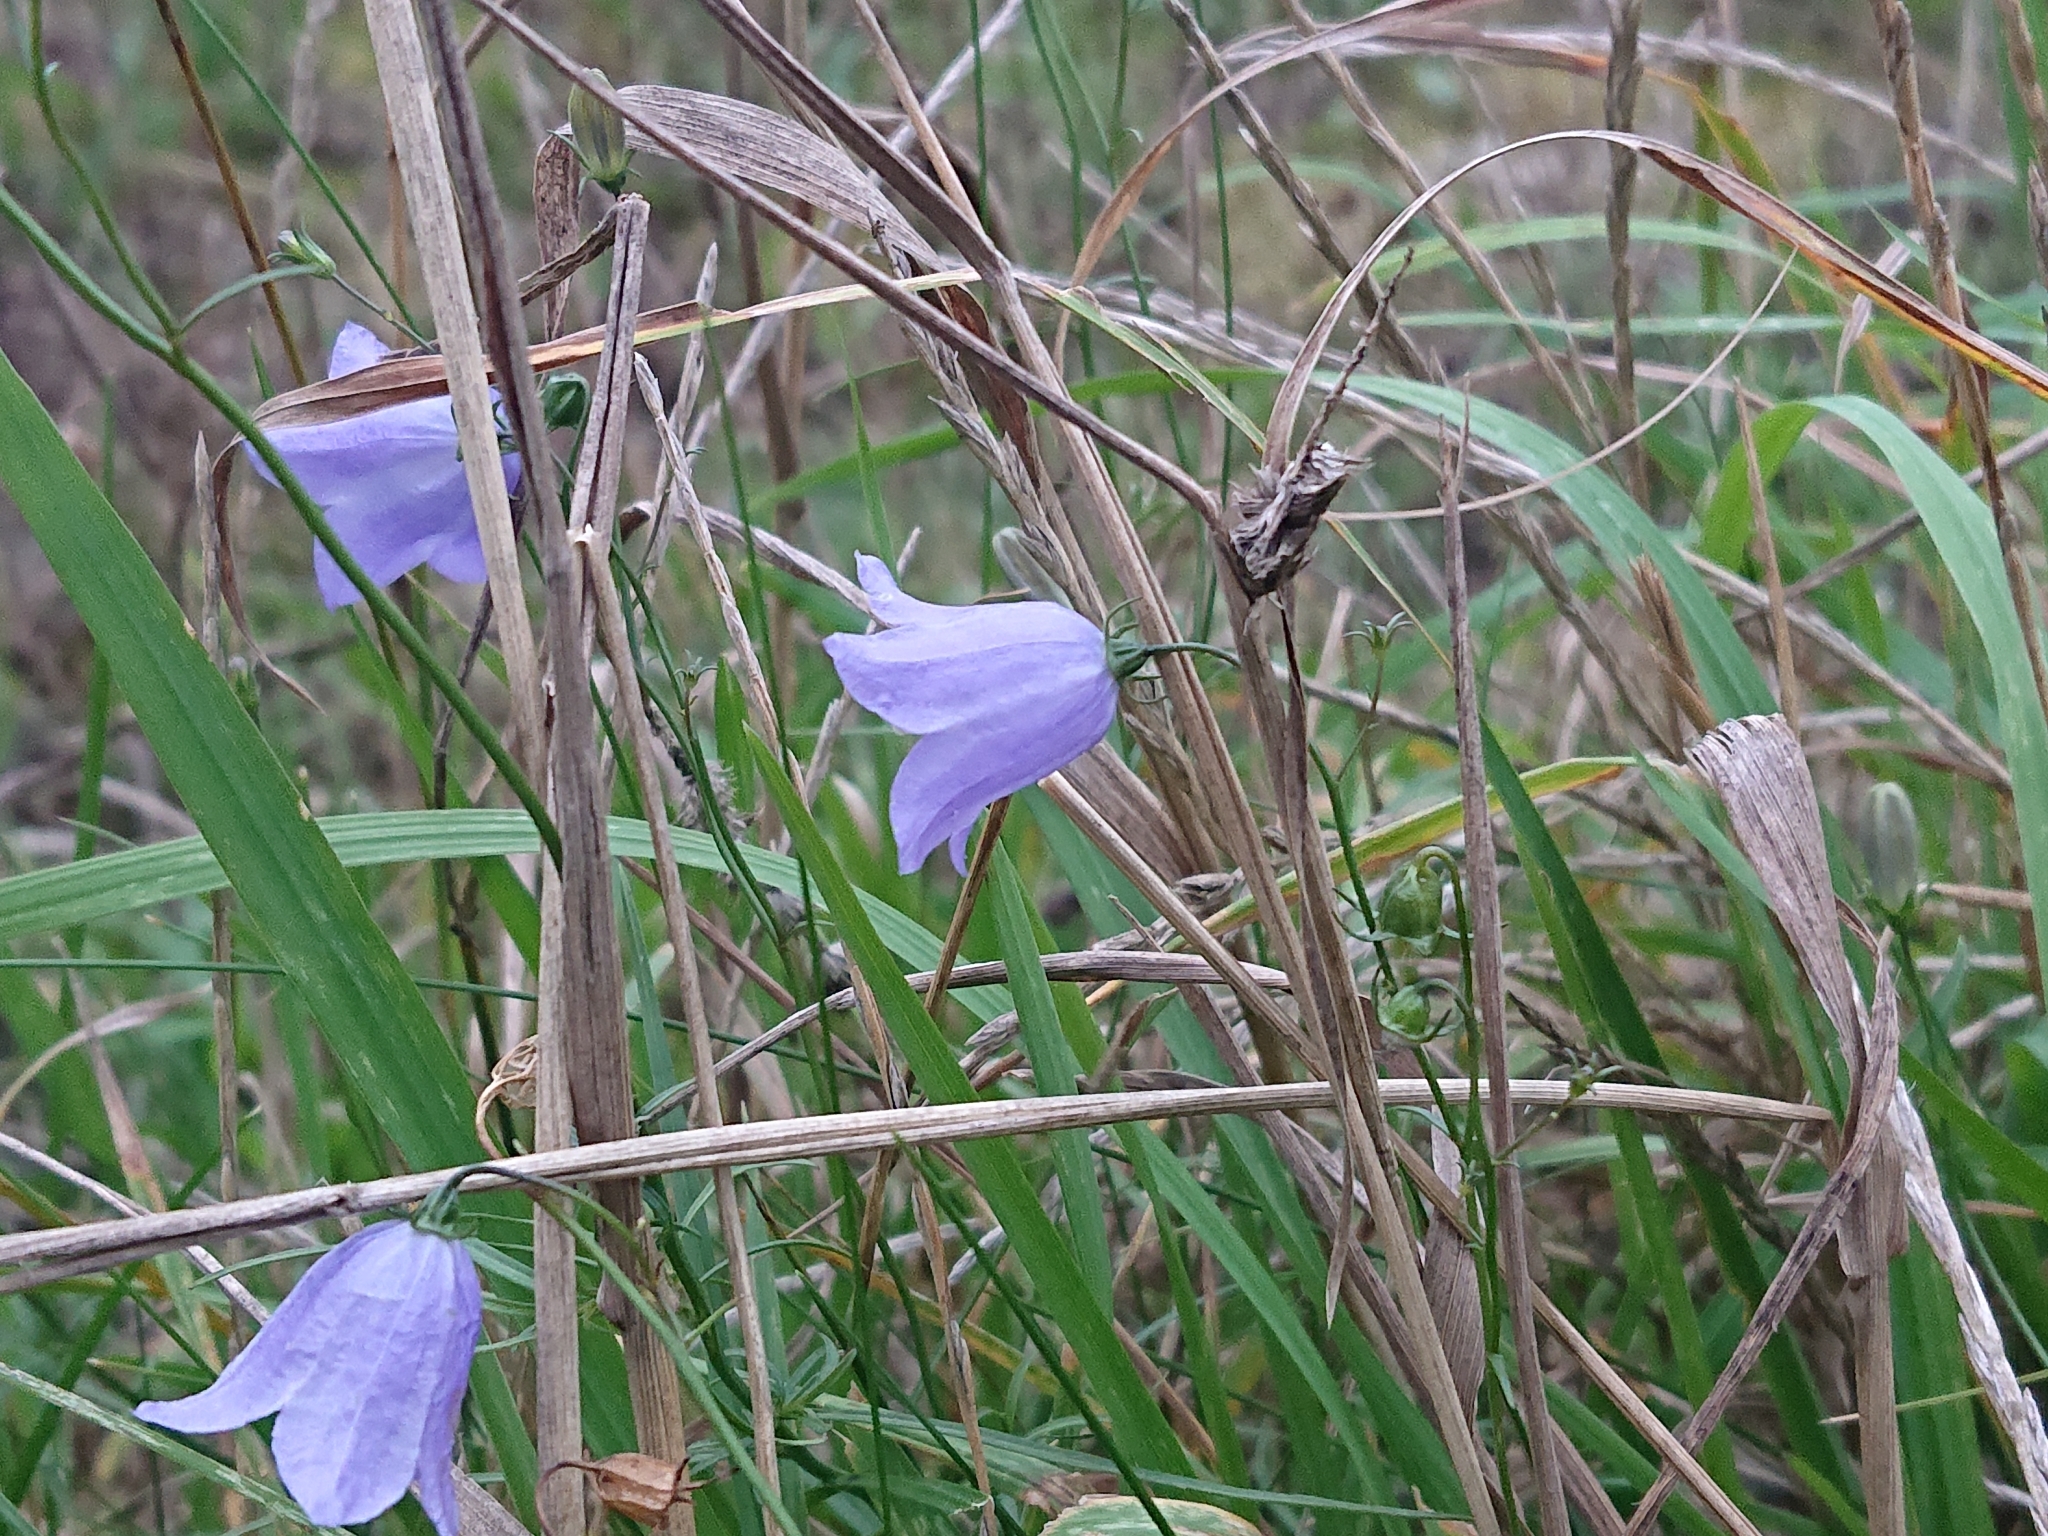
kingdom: Plantae
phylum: Tracheophyta
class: Magnoliopsida
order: Asterales
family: Campanulaceae
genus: Campanula
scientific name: Campanula rotundifolia
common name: Harebell
